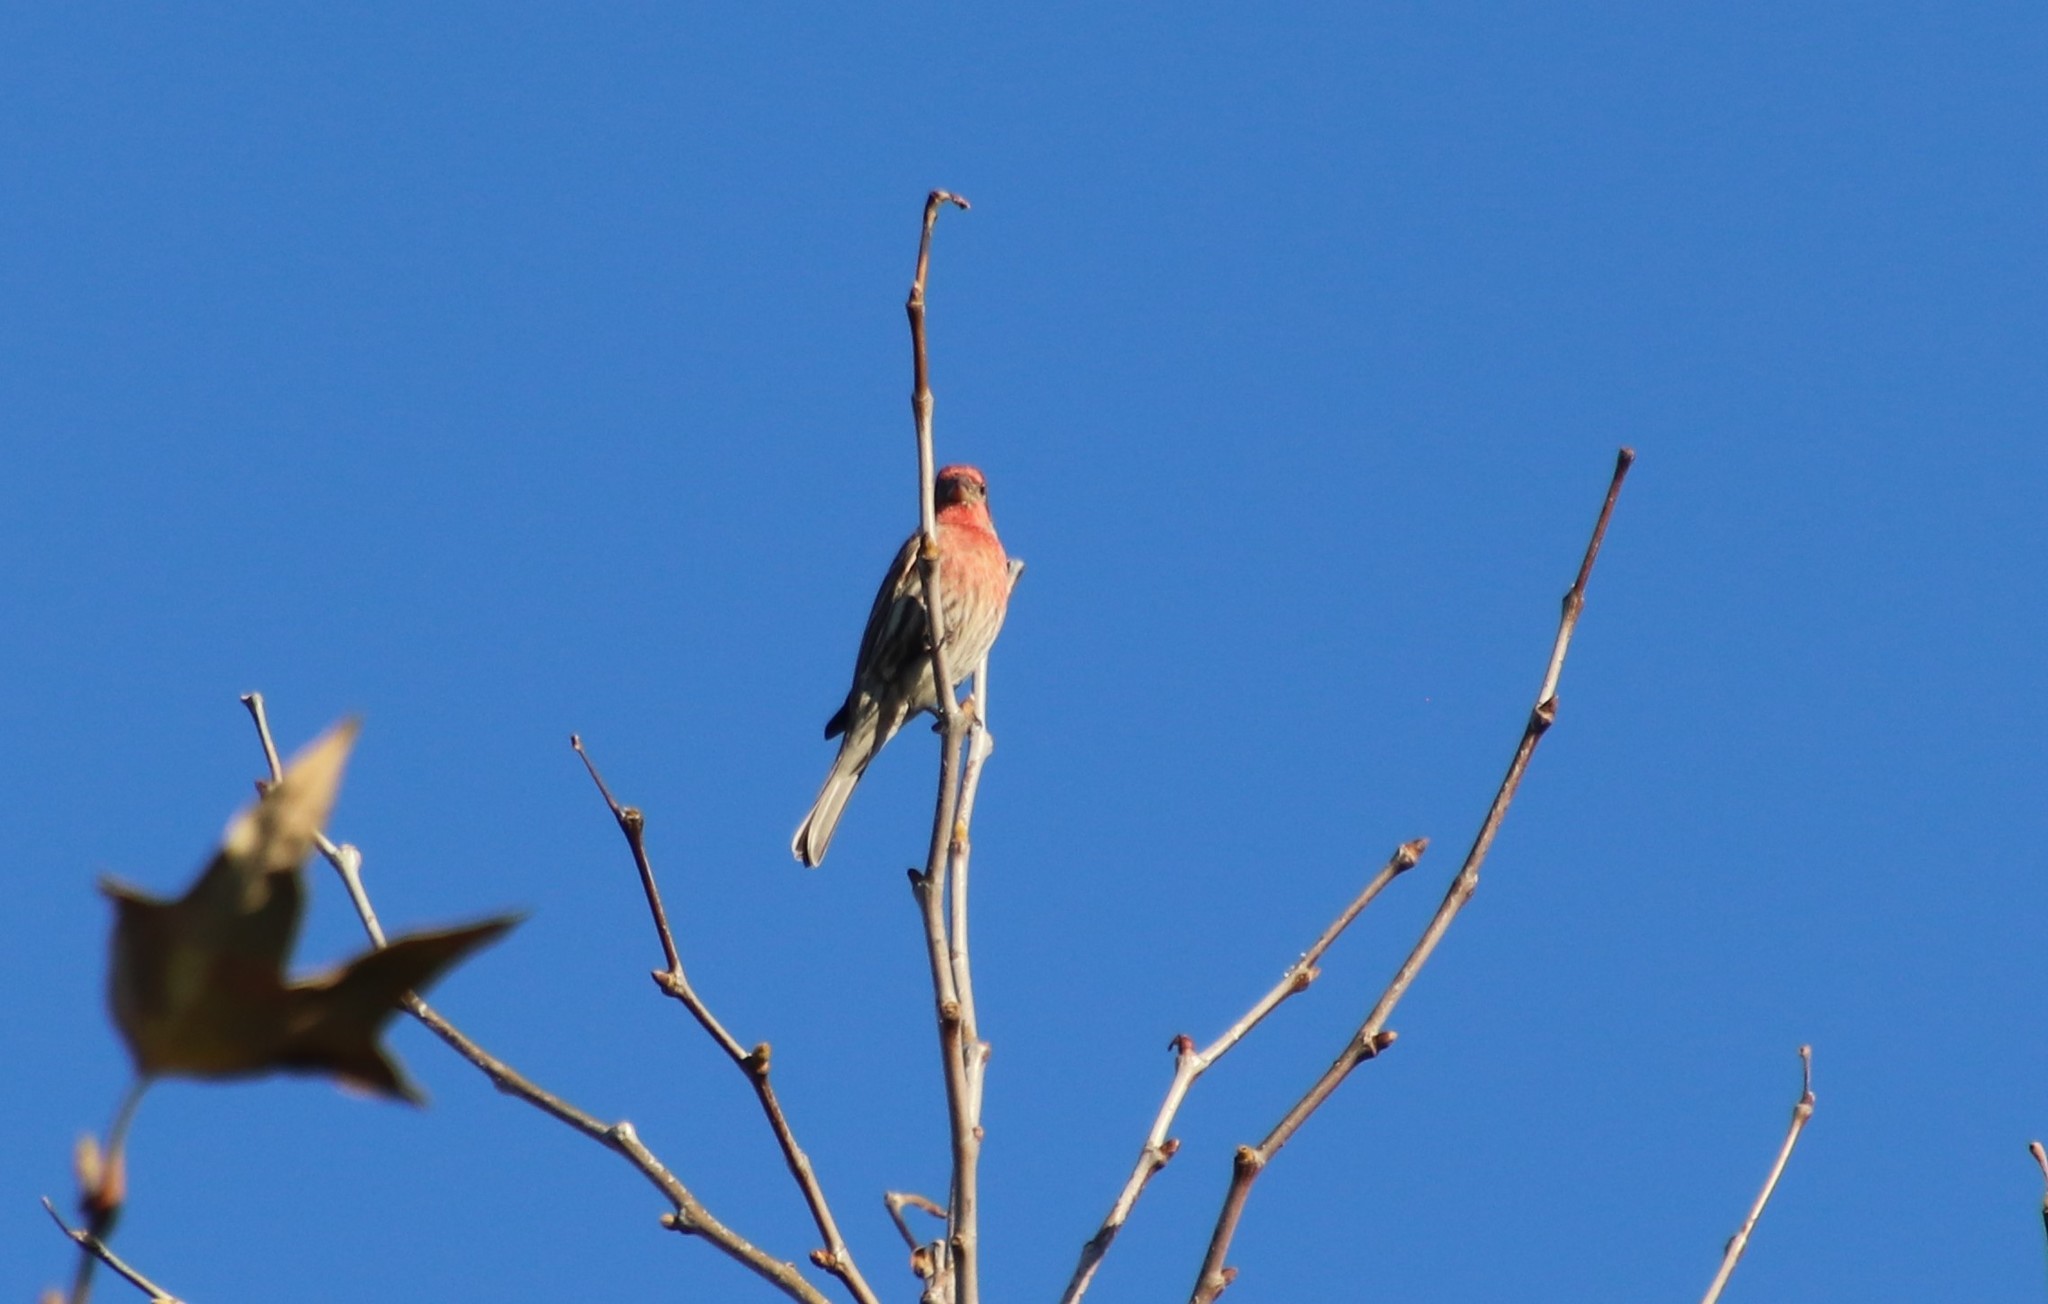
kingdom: Animalia
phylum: Chordata
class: Aves
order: Passeriformes
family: Fringillidae
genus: Haemorhous
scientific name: Haemorhous mexicanus
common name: House finch
